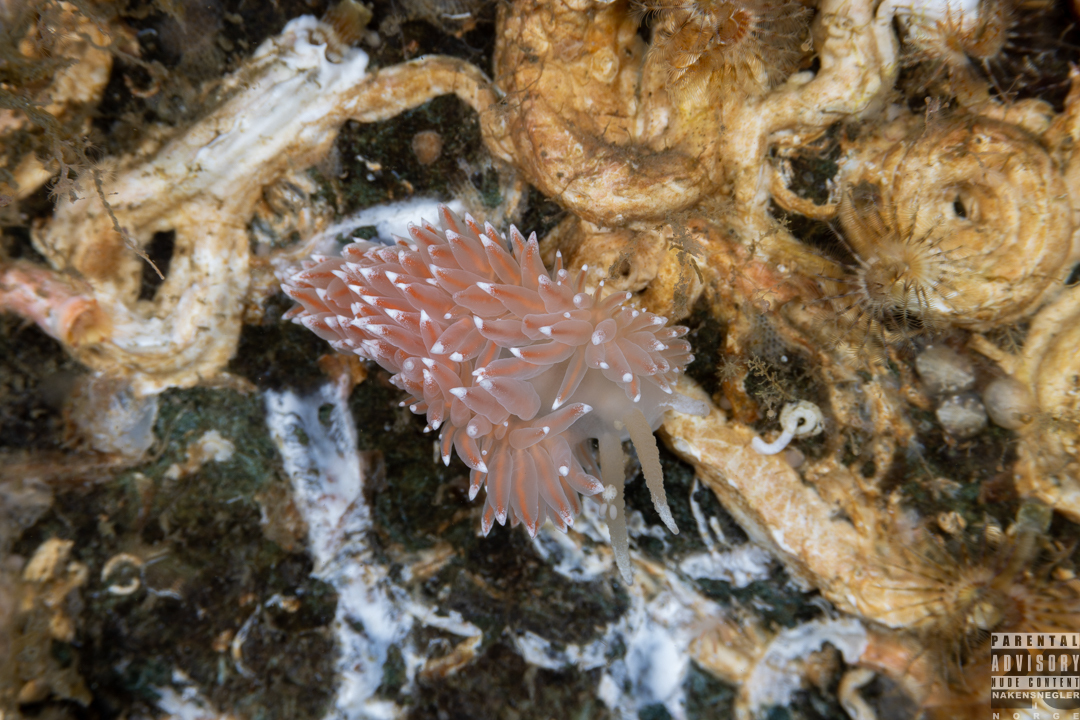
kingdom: Animalia
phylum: Mollusca
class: Gastropoda
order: Nudibranchia
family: Coryphellidae
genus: Coryphella
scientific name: Coryphella nobilis
